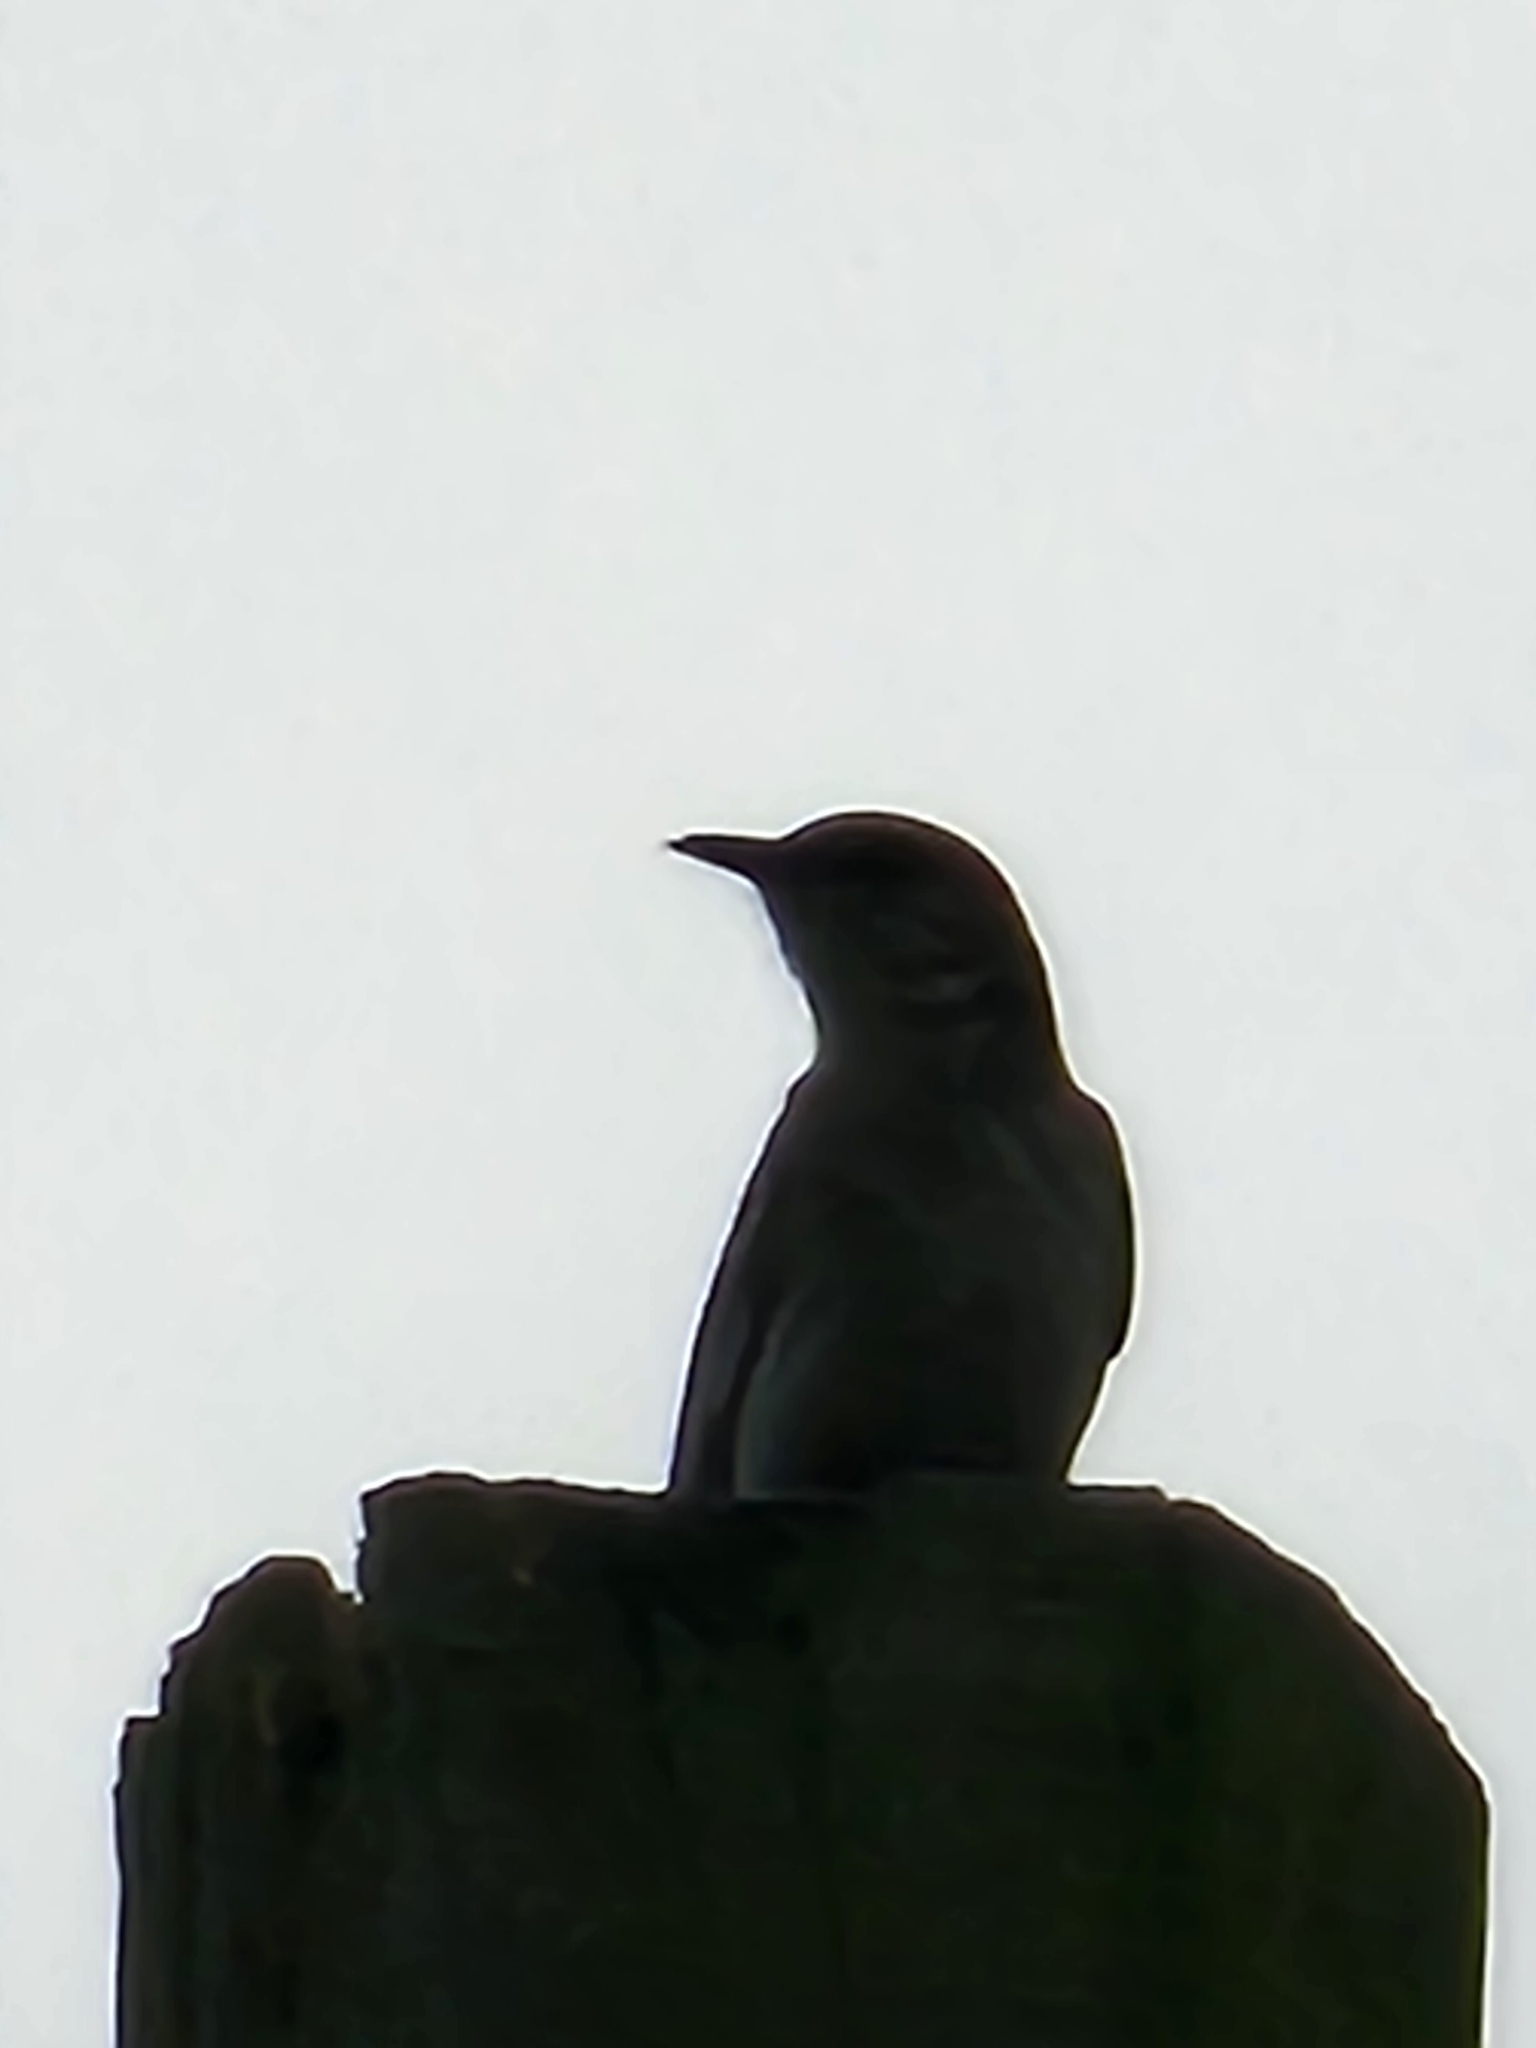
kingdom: Animalia
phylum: Chordata
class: Aves
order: Passeriformes
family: Mimidae
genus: Mimus
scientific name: Mimus polyglottos
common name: Northern mockingbird
